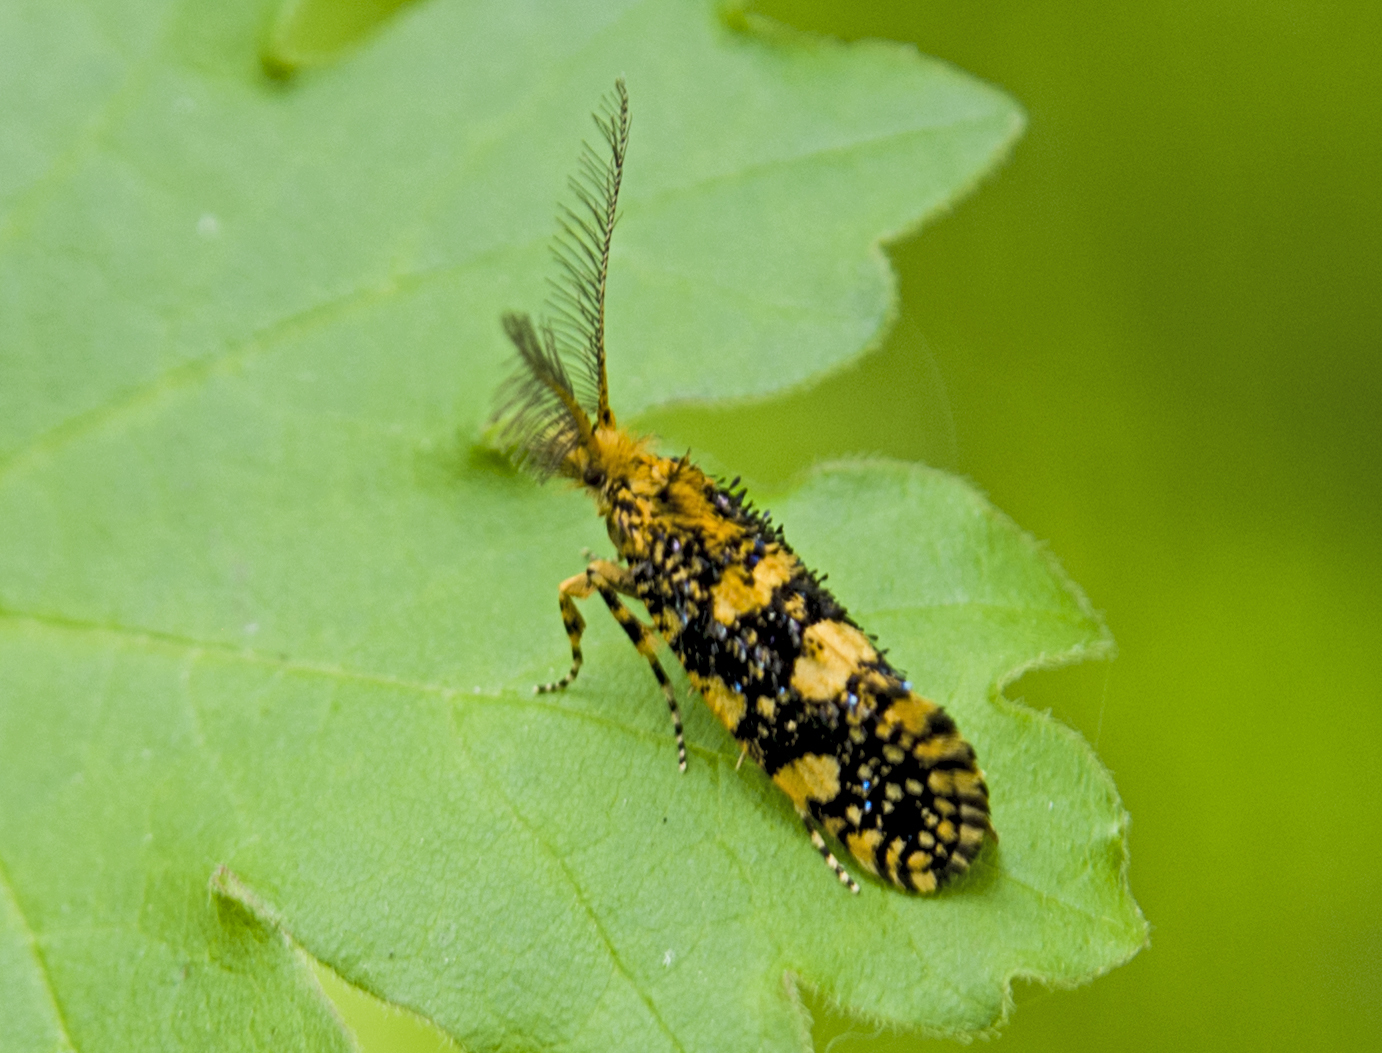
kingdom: Animalia
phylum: Arthropoda
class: Insecta
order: Lepidoptera
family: Tineidae
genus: Euplocamus
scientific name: Euplocamus ophisa
